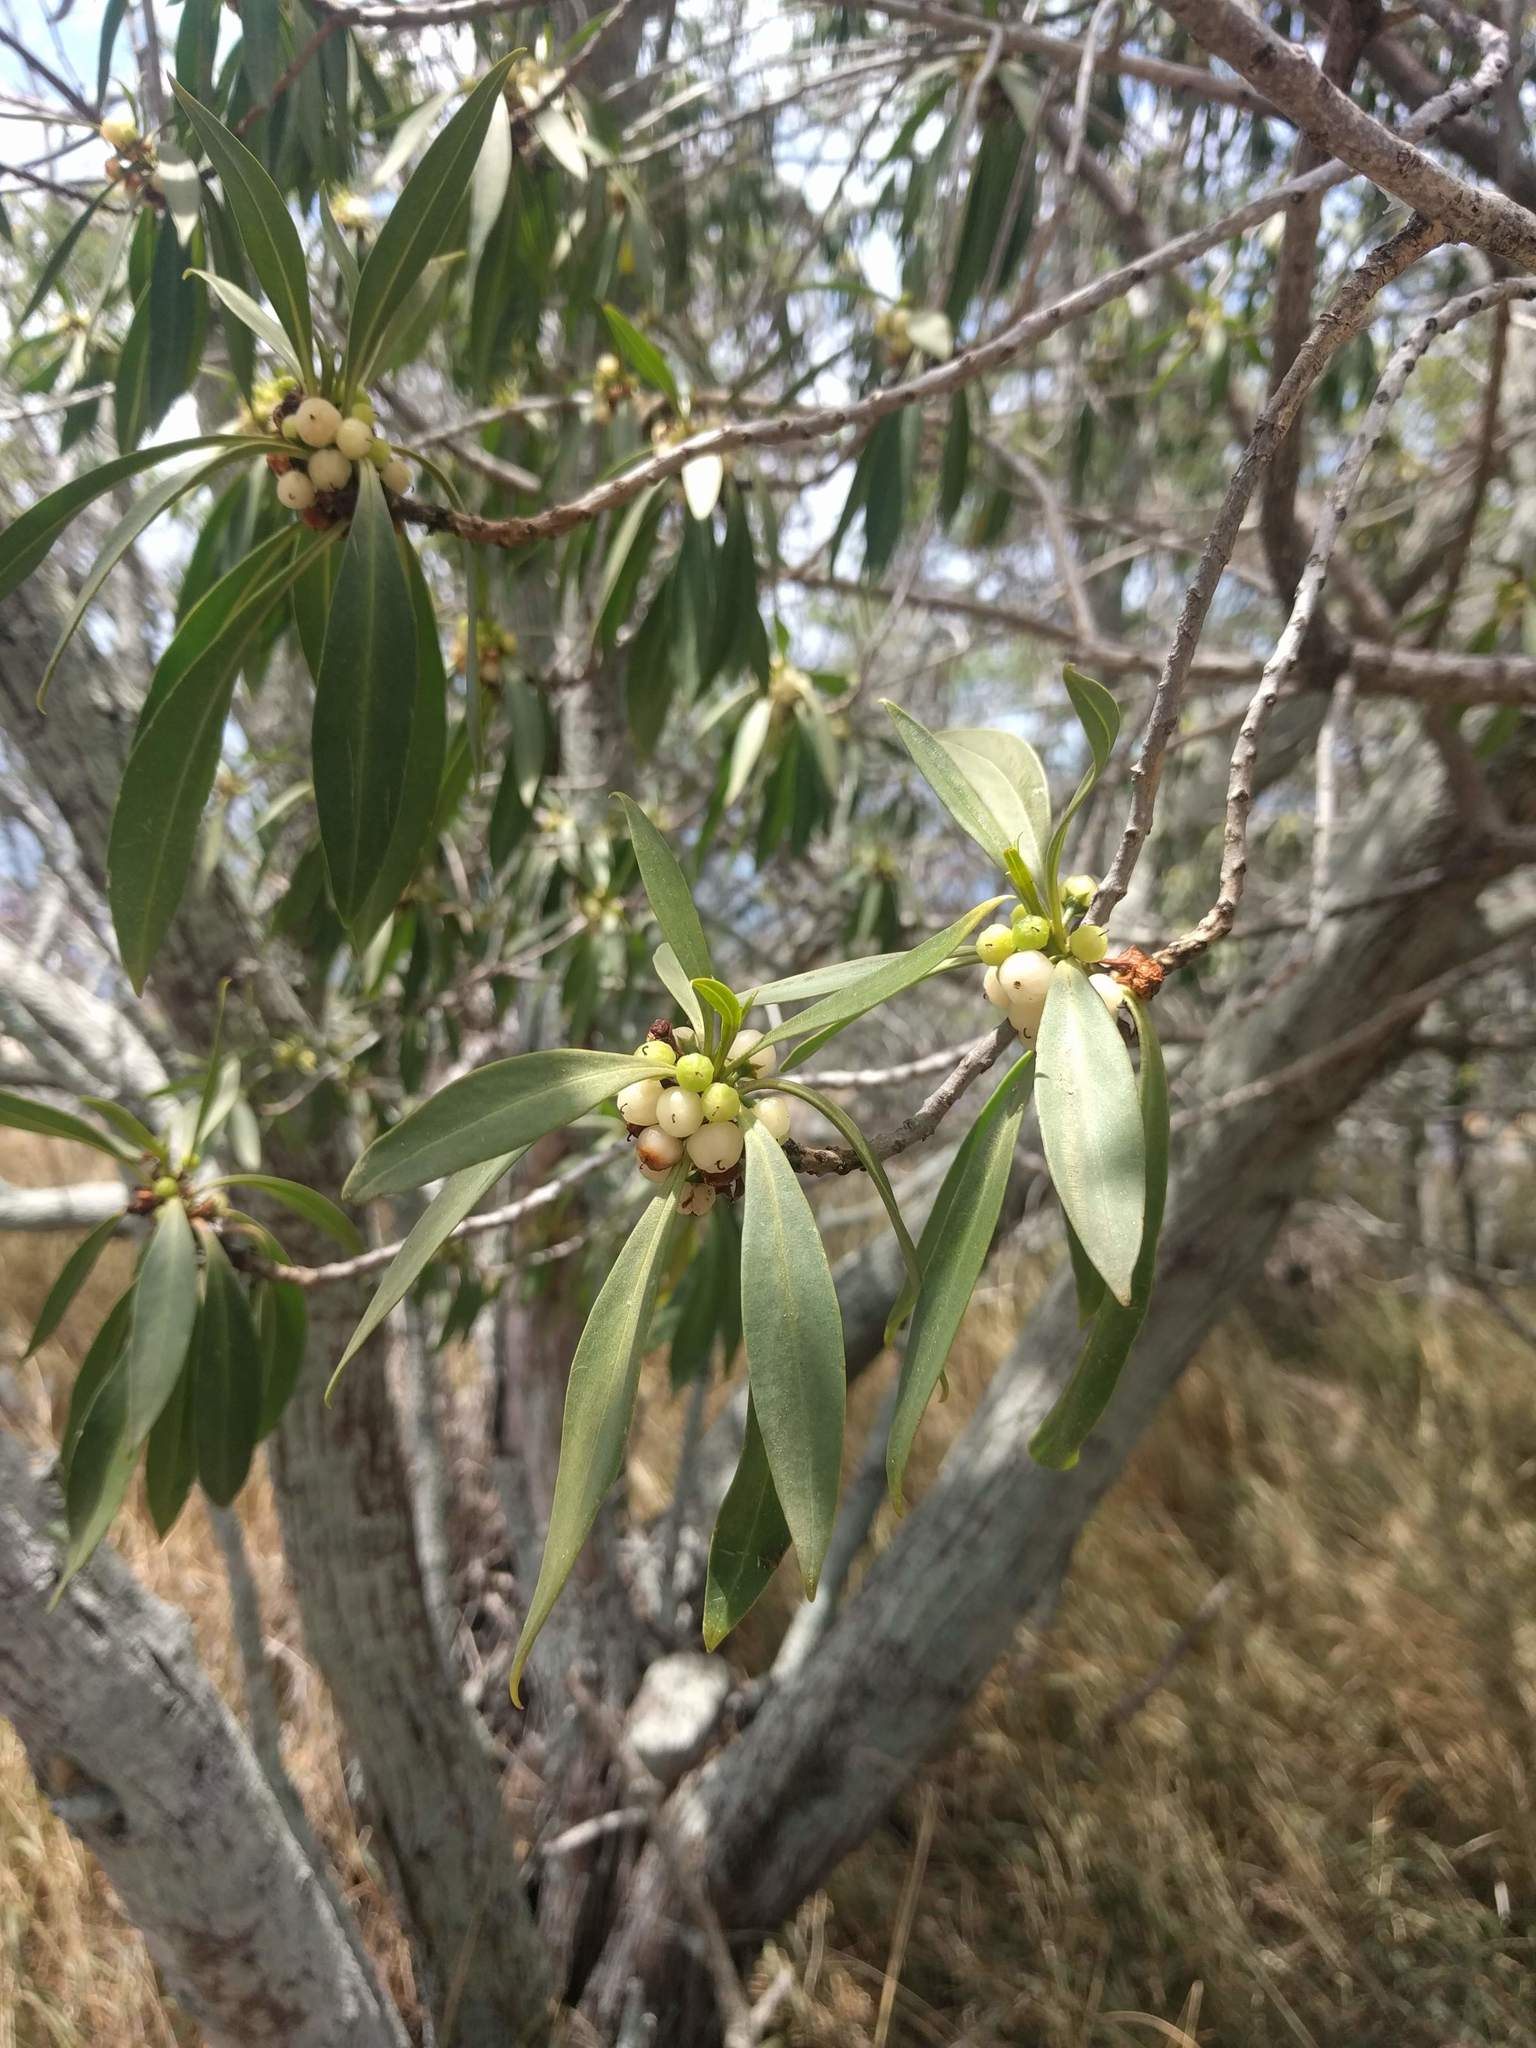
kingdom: Plantae
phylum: Tracheophyta
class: Magnoliopsida
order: Lamiales
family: Scrophulariaceae
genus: Myoporum
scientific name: Myoporum sandwicense
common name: Bastard-sandalwood
